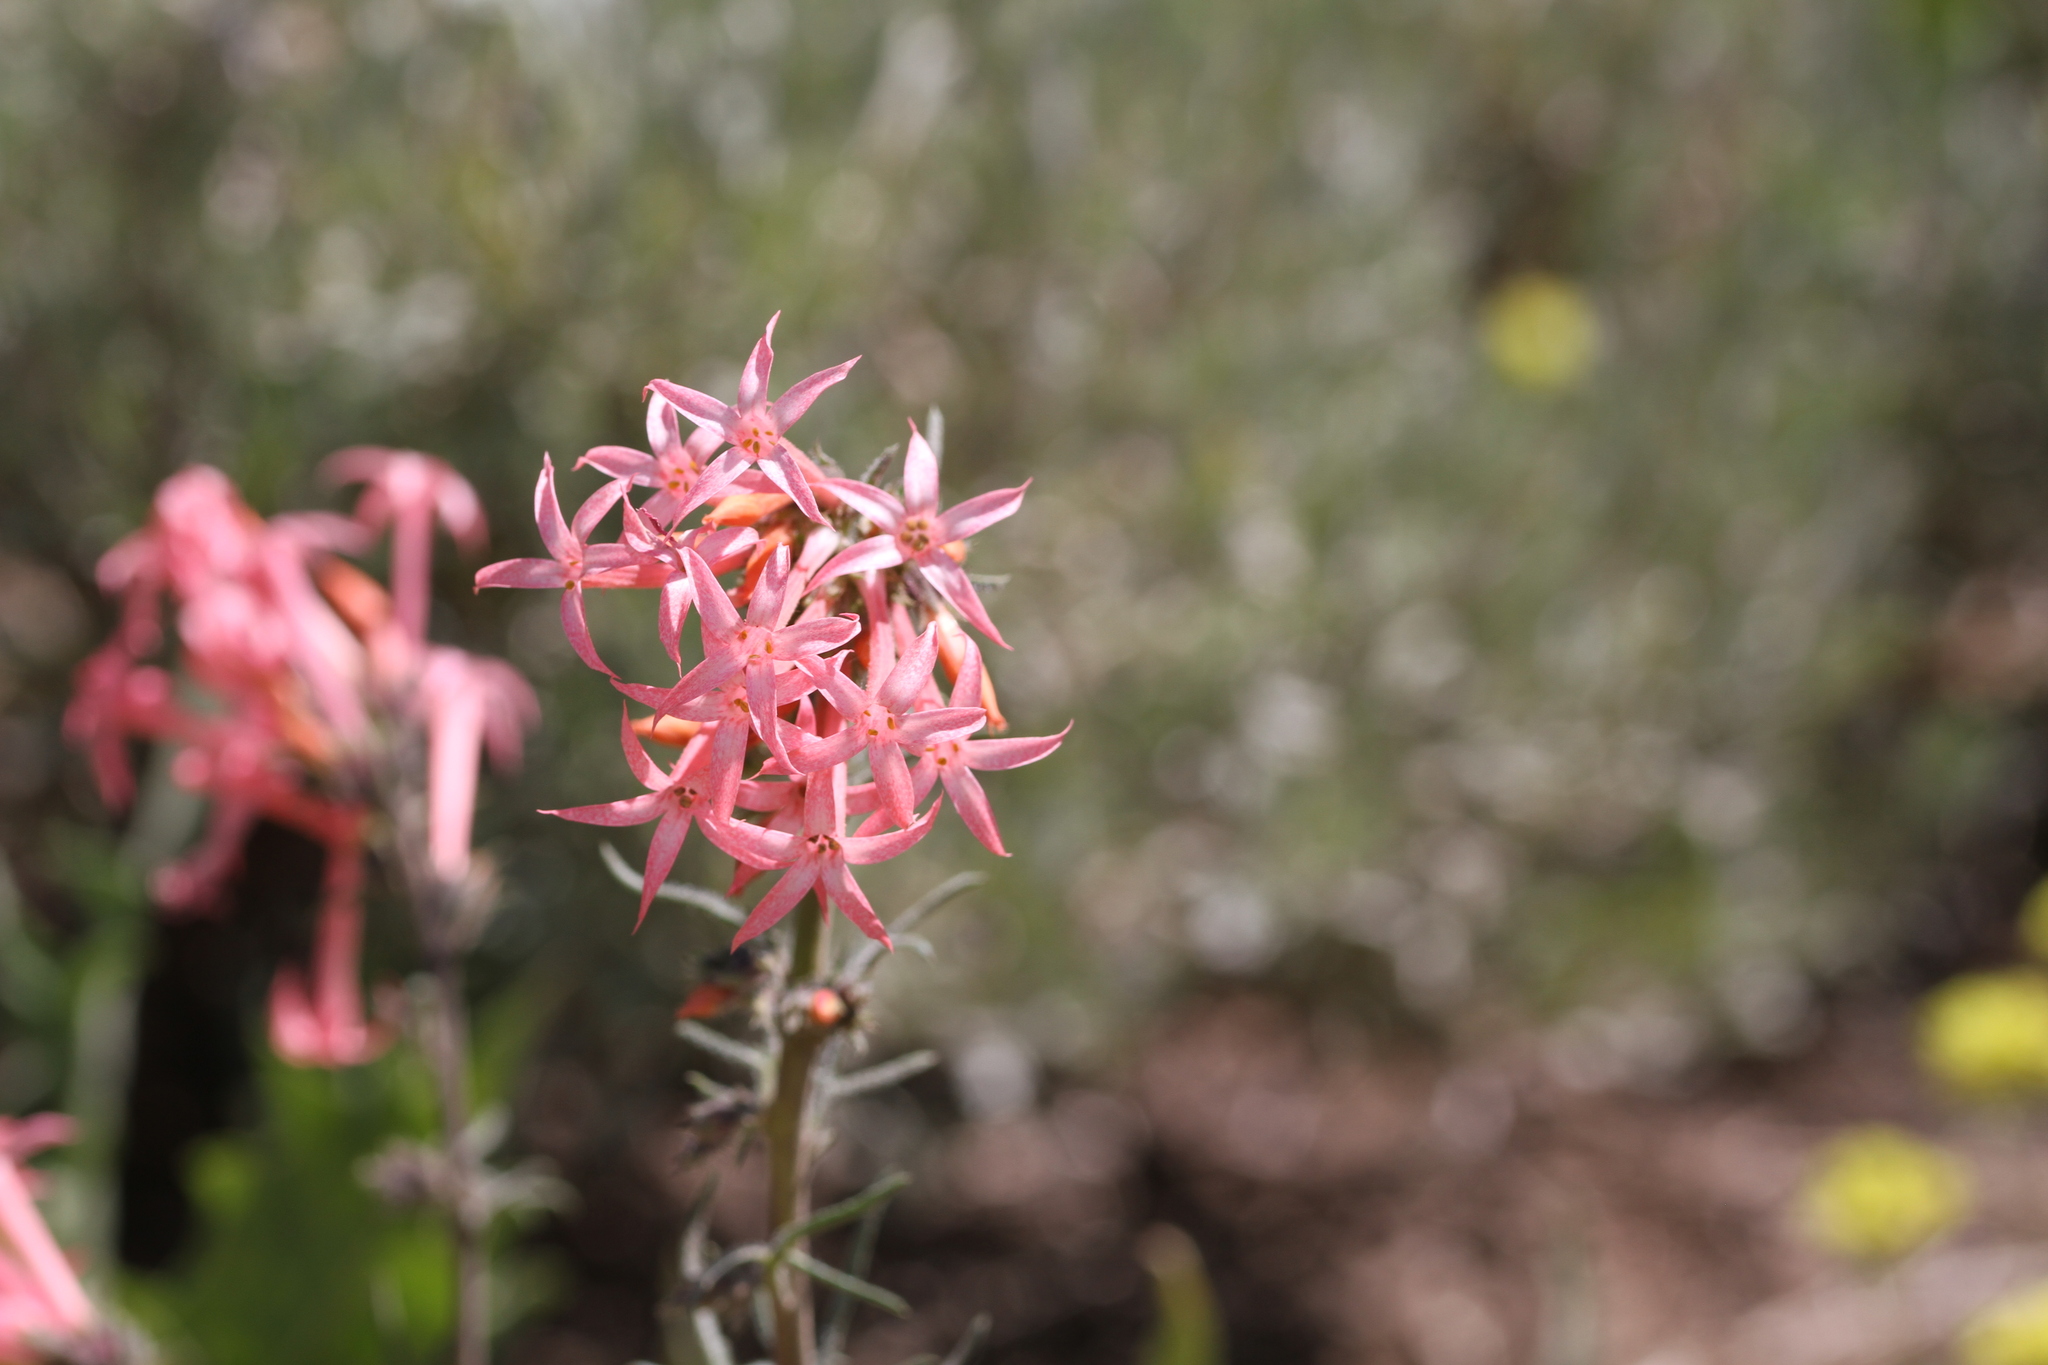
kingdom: Plantae
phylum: Tracheophyta
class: Magnoliopsida
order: Ericales
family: Polemoniaceae
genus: Ipomopsis
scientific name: Ipomopsis tenuituba
